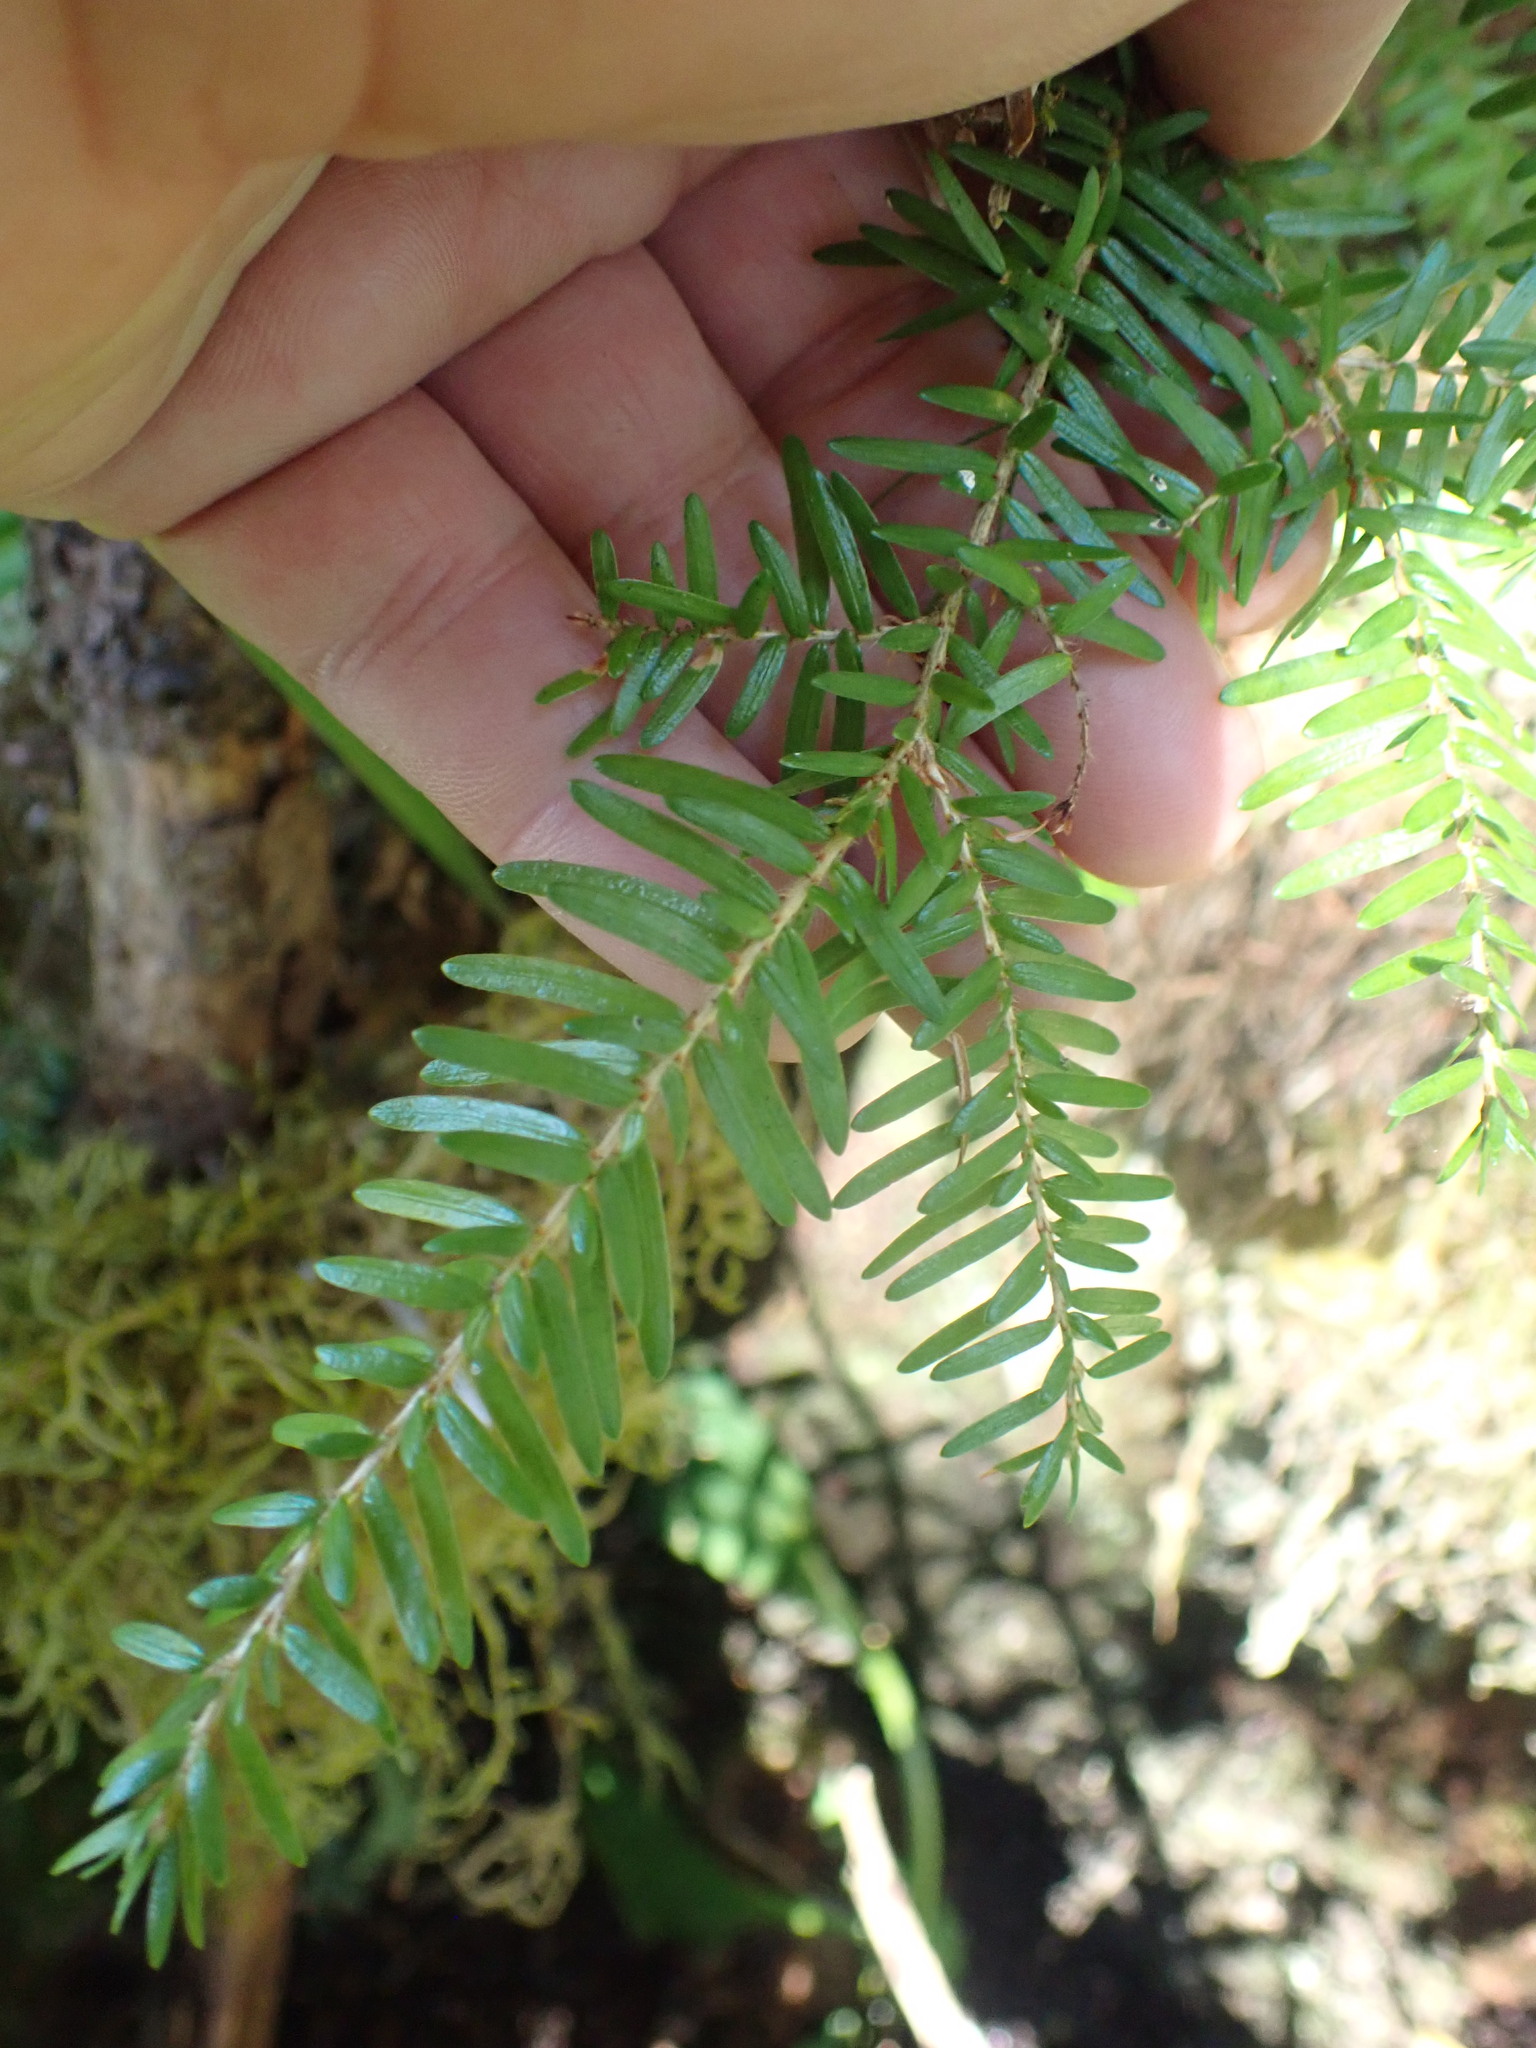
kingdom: Plantae
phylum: Tracheophyta
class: Pinopsida
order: Pinales
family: Pinaceae
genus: Tsuga
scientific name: Tsuga heterophylla
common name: Western hemlock
